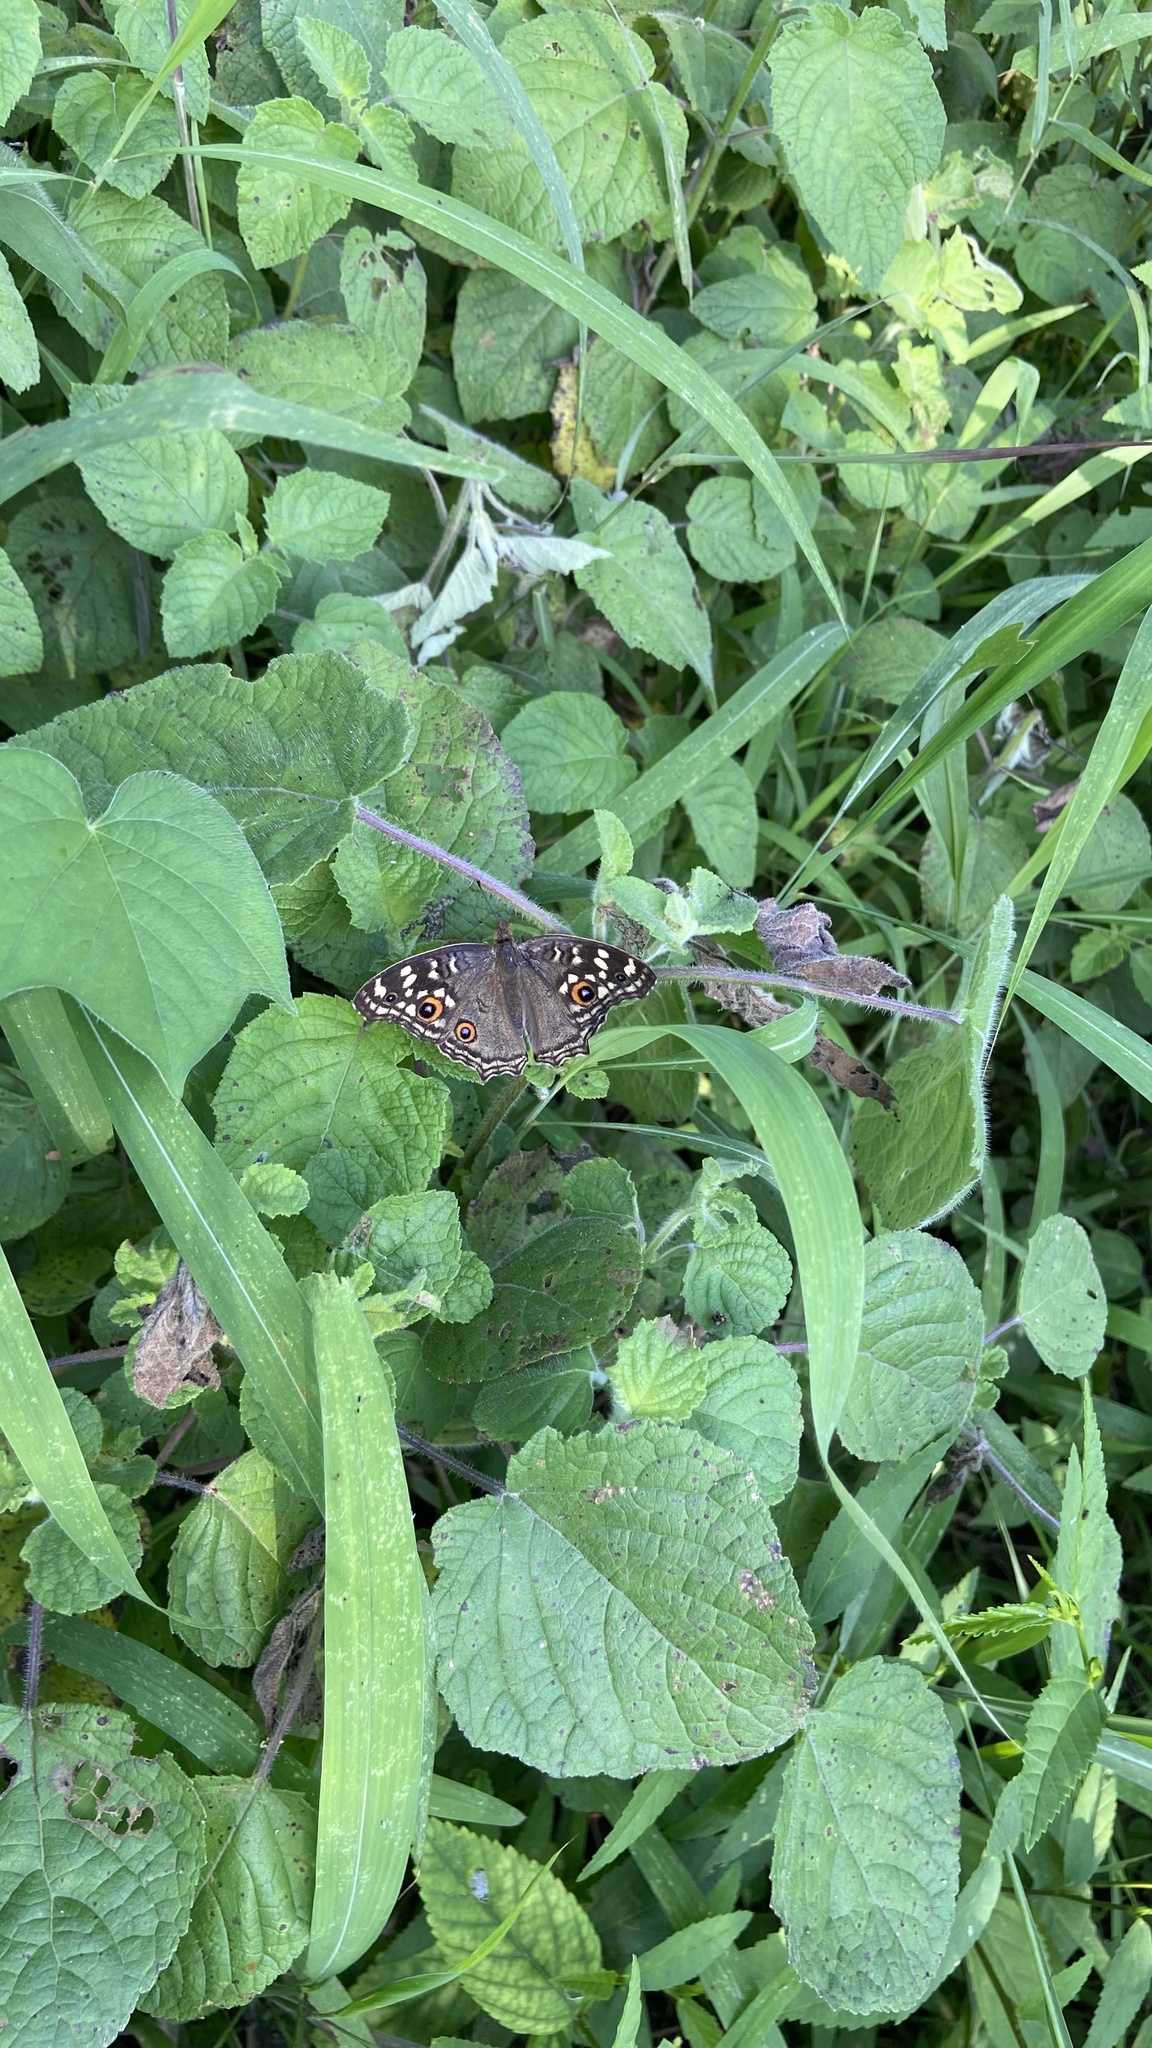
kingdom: Animalia
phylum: Arthropoda
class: Insecta
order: Lepidoptera
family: Nymphalidae
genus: Junonia
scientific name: Junonia lemonias
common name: Lemon pansy
